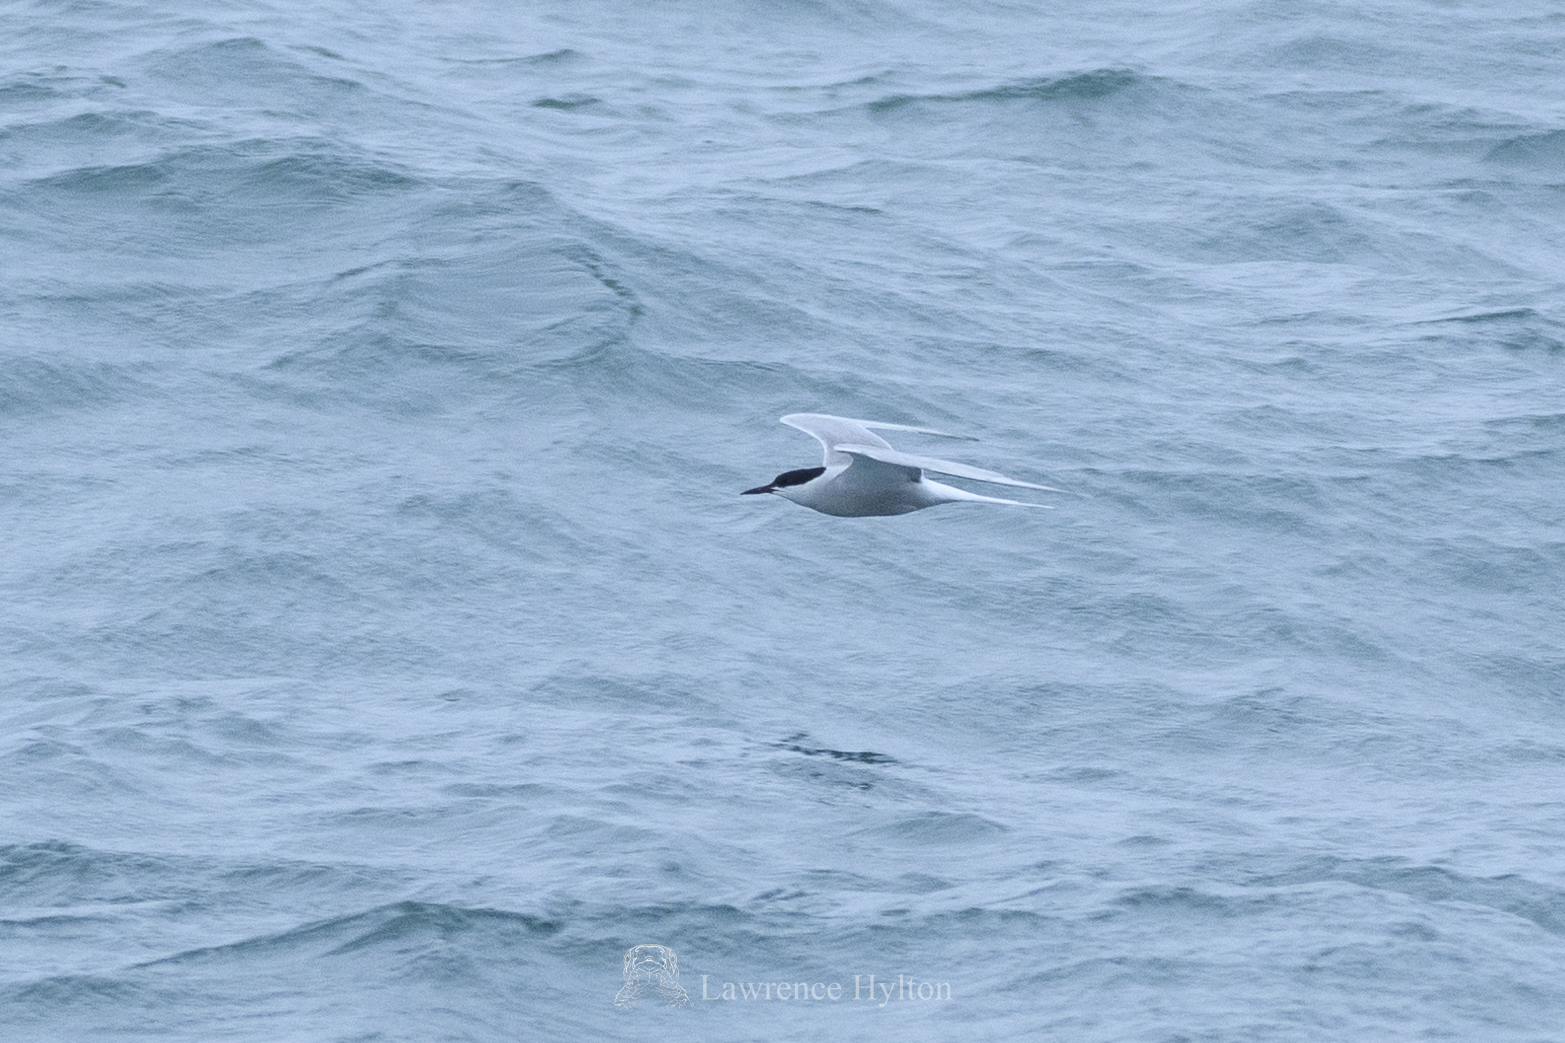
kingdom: Animalia
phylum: Chordata
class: Aves
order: Charadriiformes
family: Laridae
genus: Sterna
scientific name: Sterna hirundo
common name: Common tern
